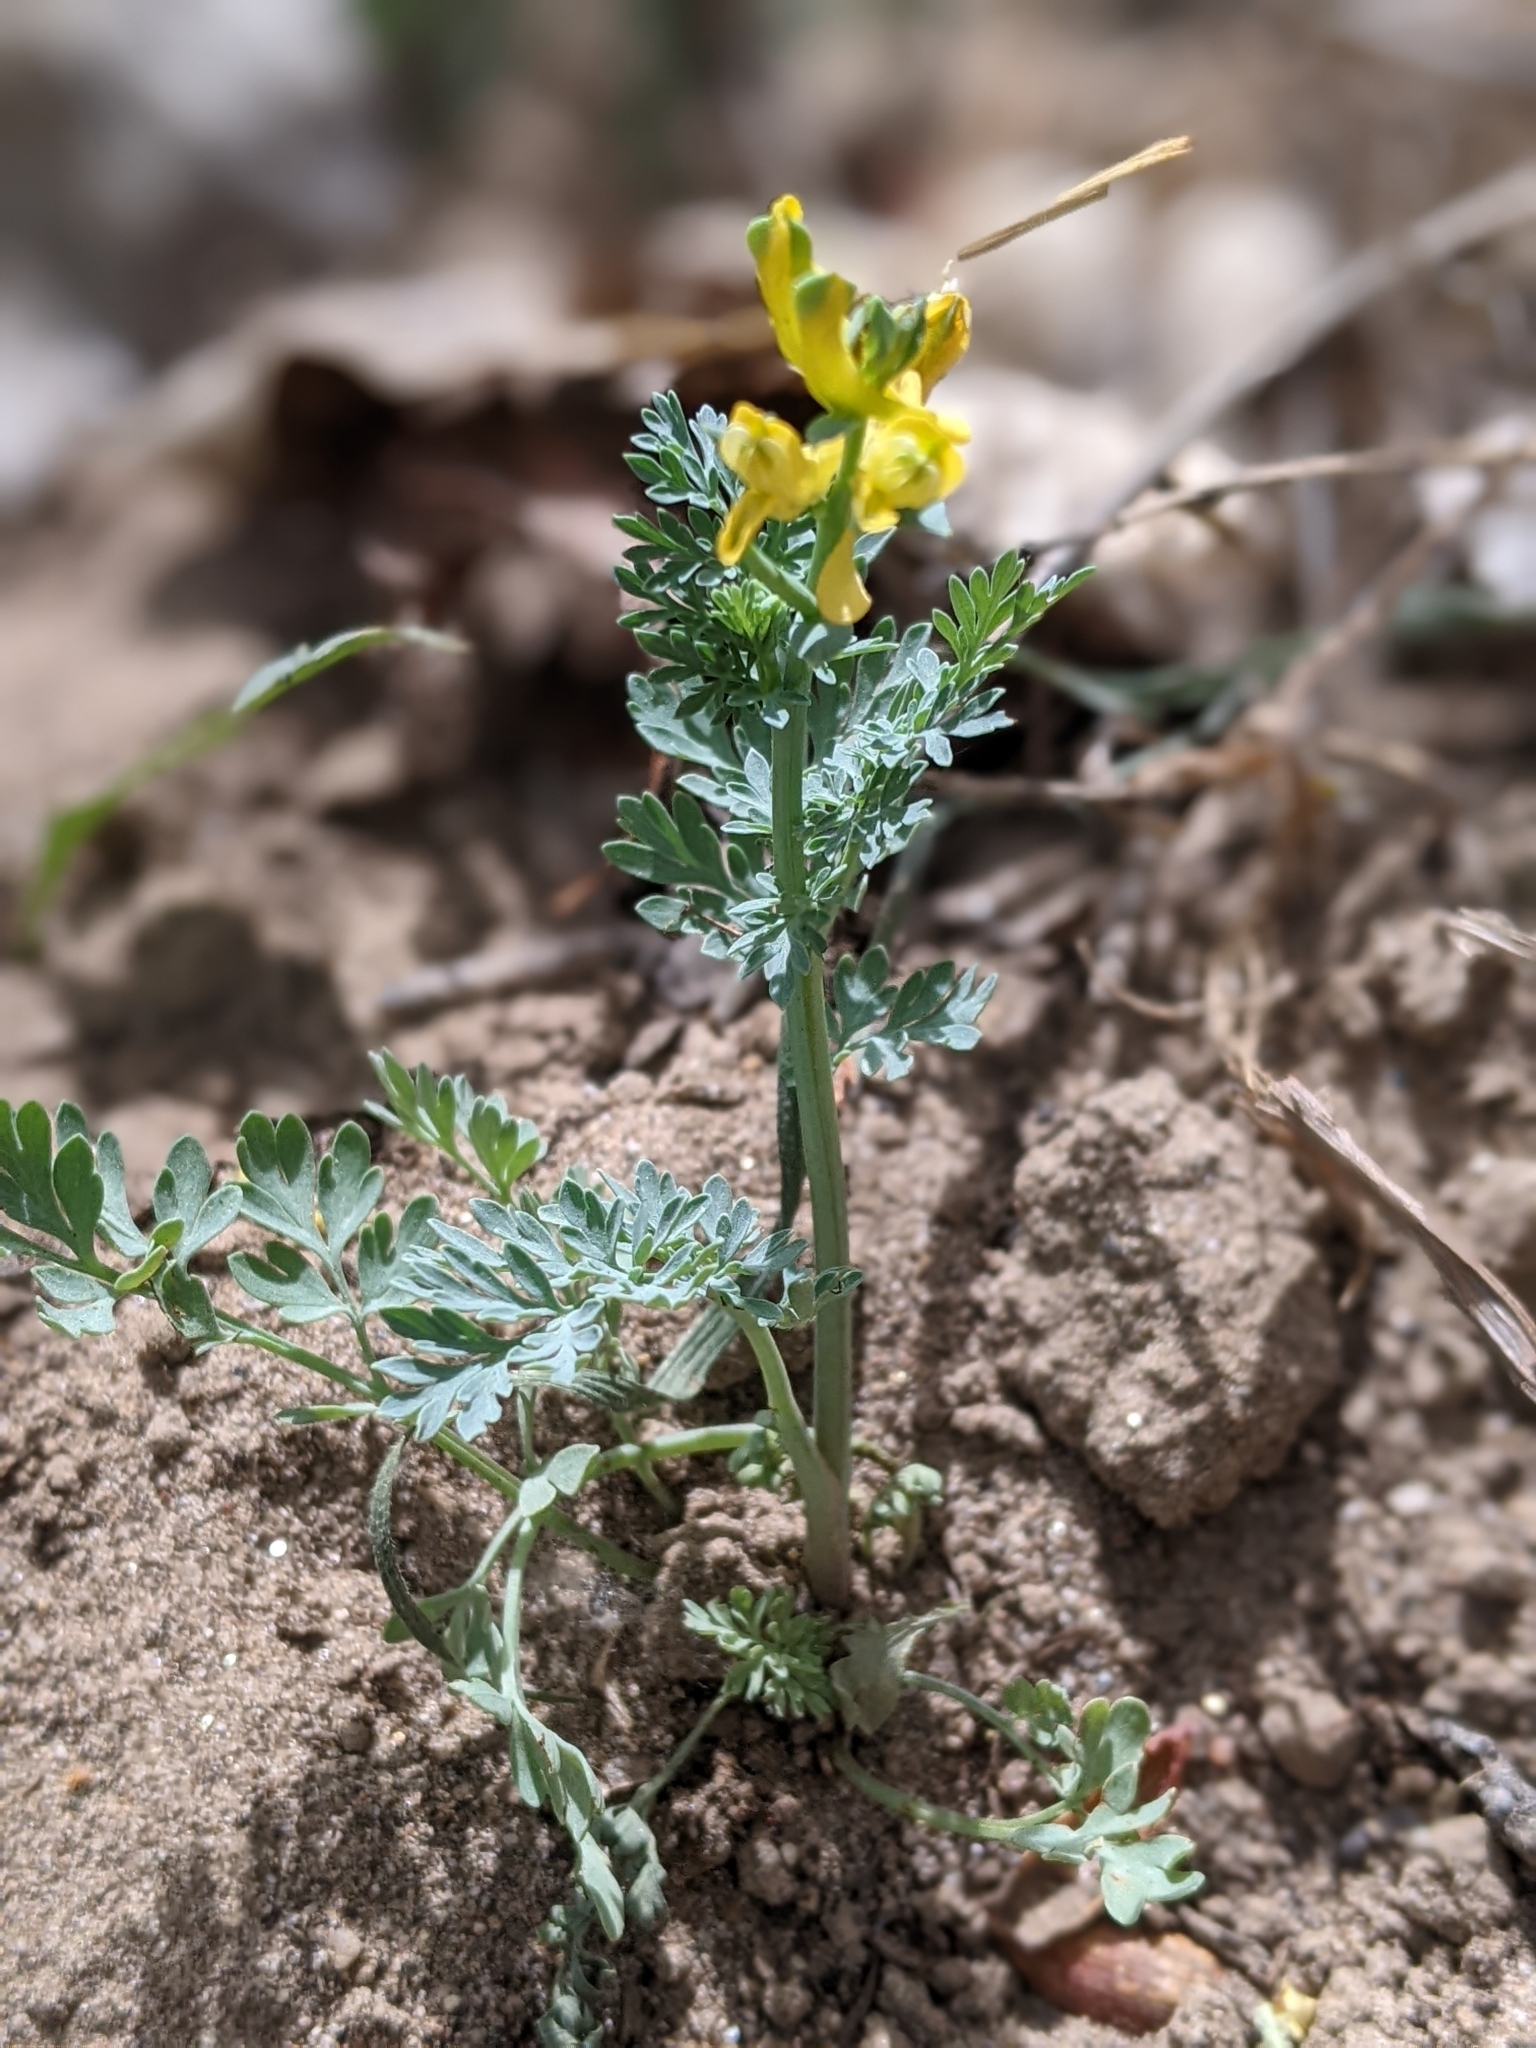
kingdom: Plantae
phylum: Tracheophyta
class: Magnoliopsida
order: Ranunculales
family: Papaveraceae
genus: Corydalis
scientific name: Corydalis aurea
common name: Golden corydalis
